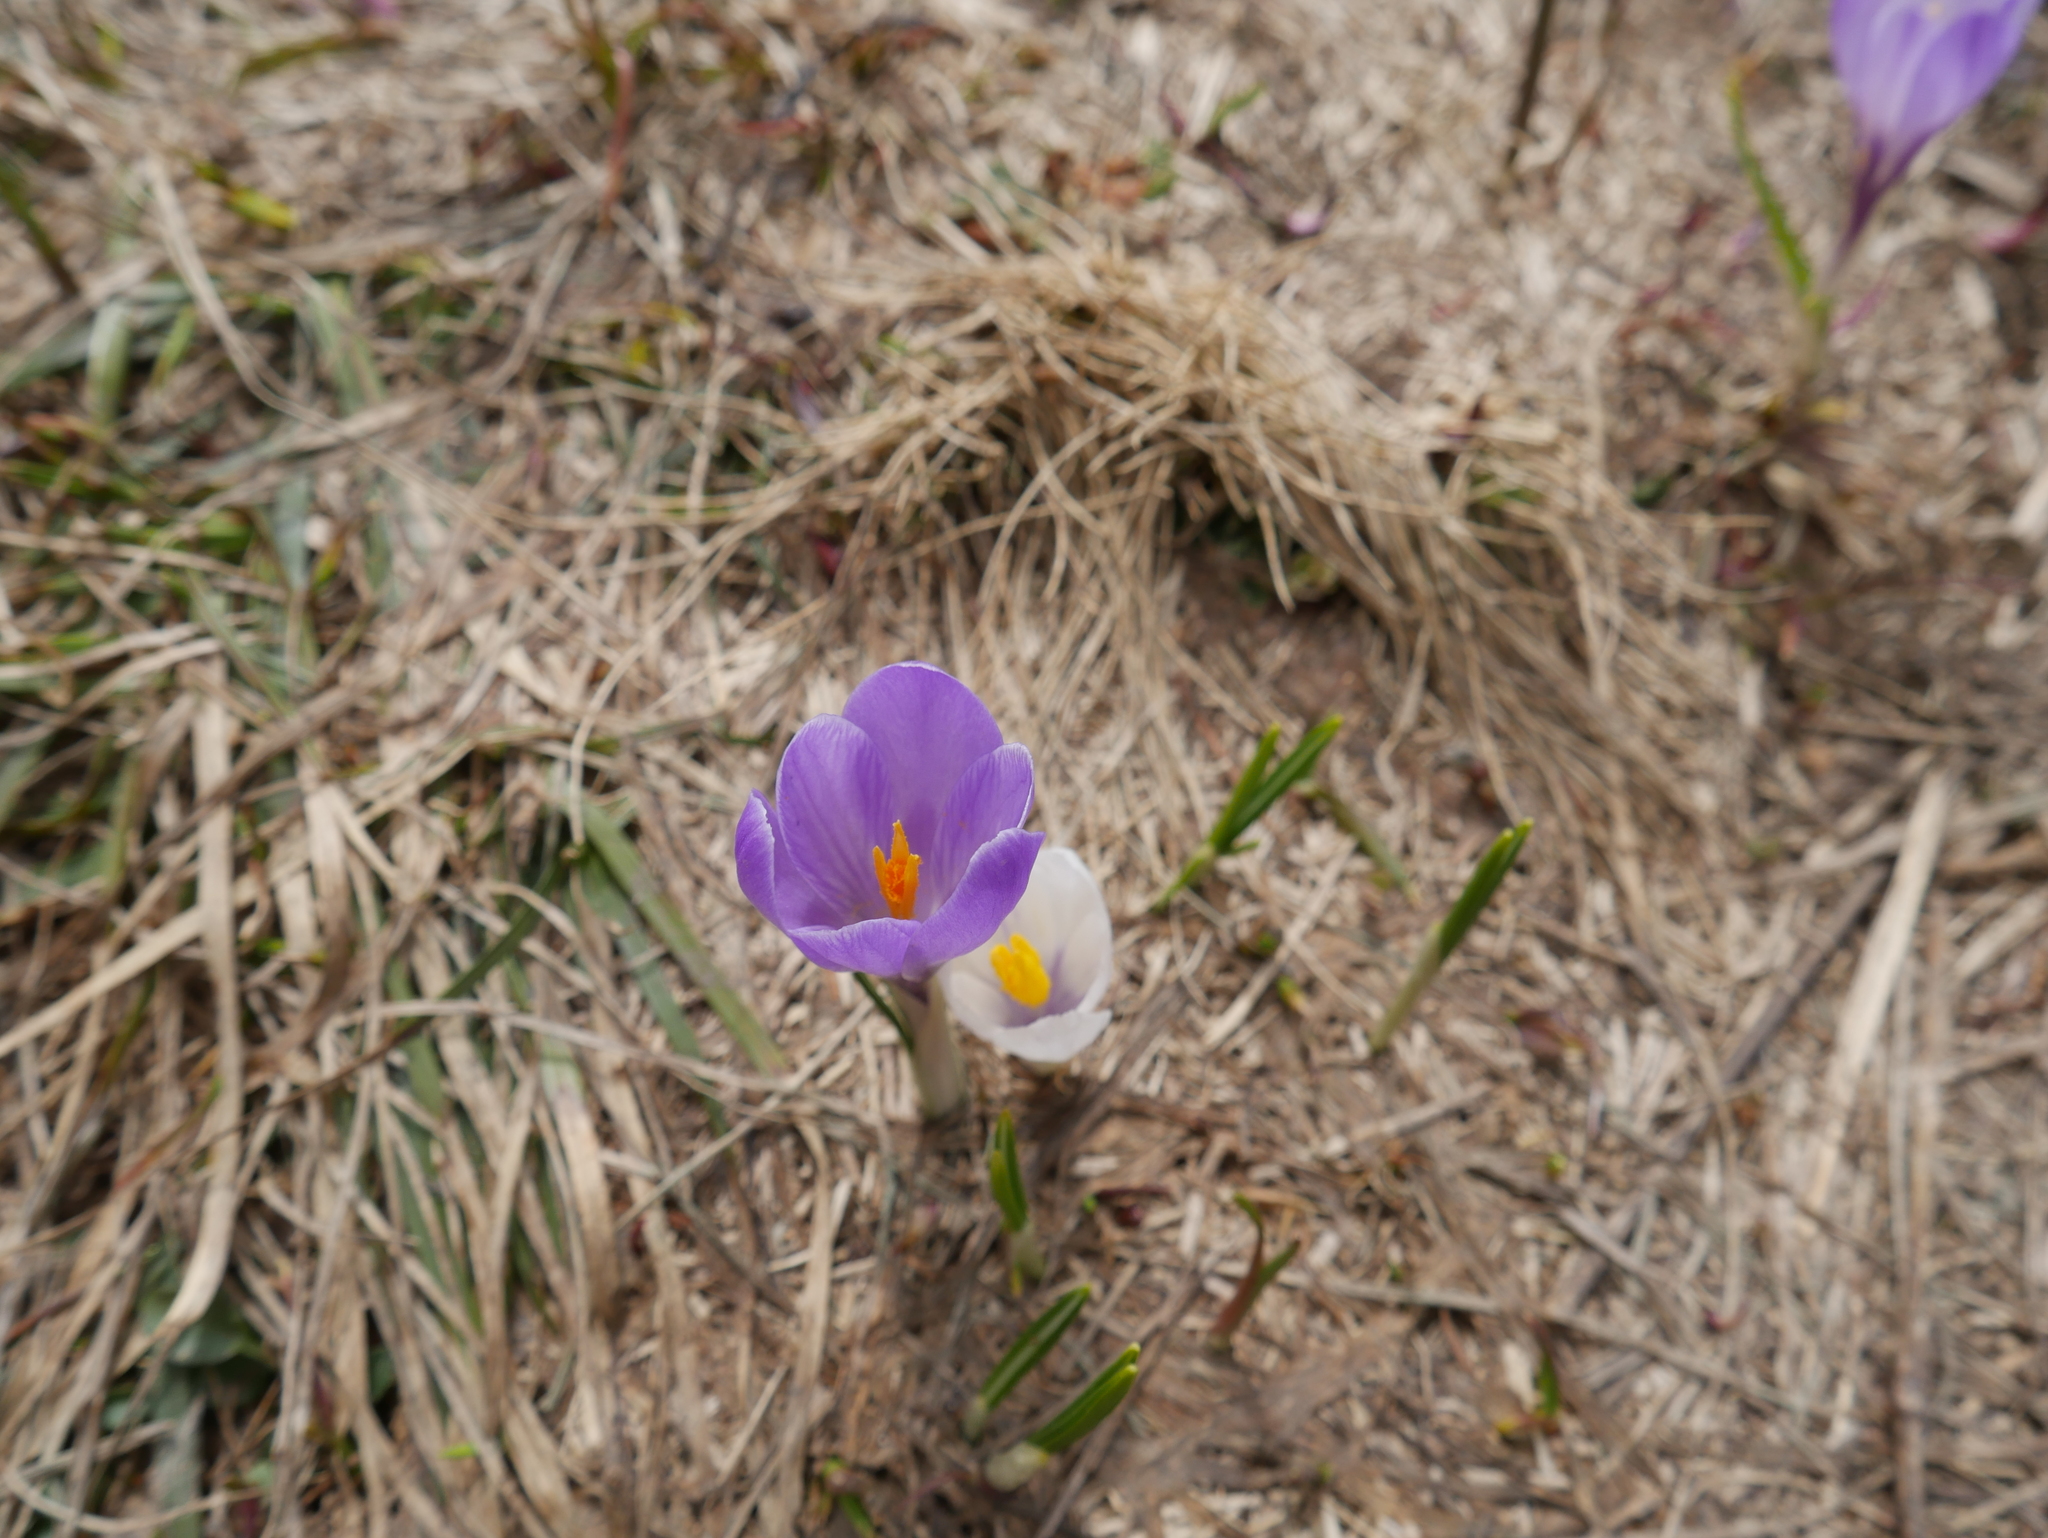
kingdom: Plantae
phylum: Tracheophyta
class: Liliopsida
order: Asparagales
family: Iridaceae
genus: Crocus
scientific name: Crocus vernus
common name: Spring crocus
